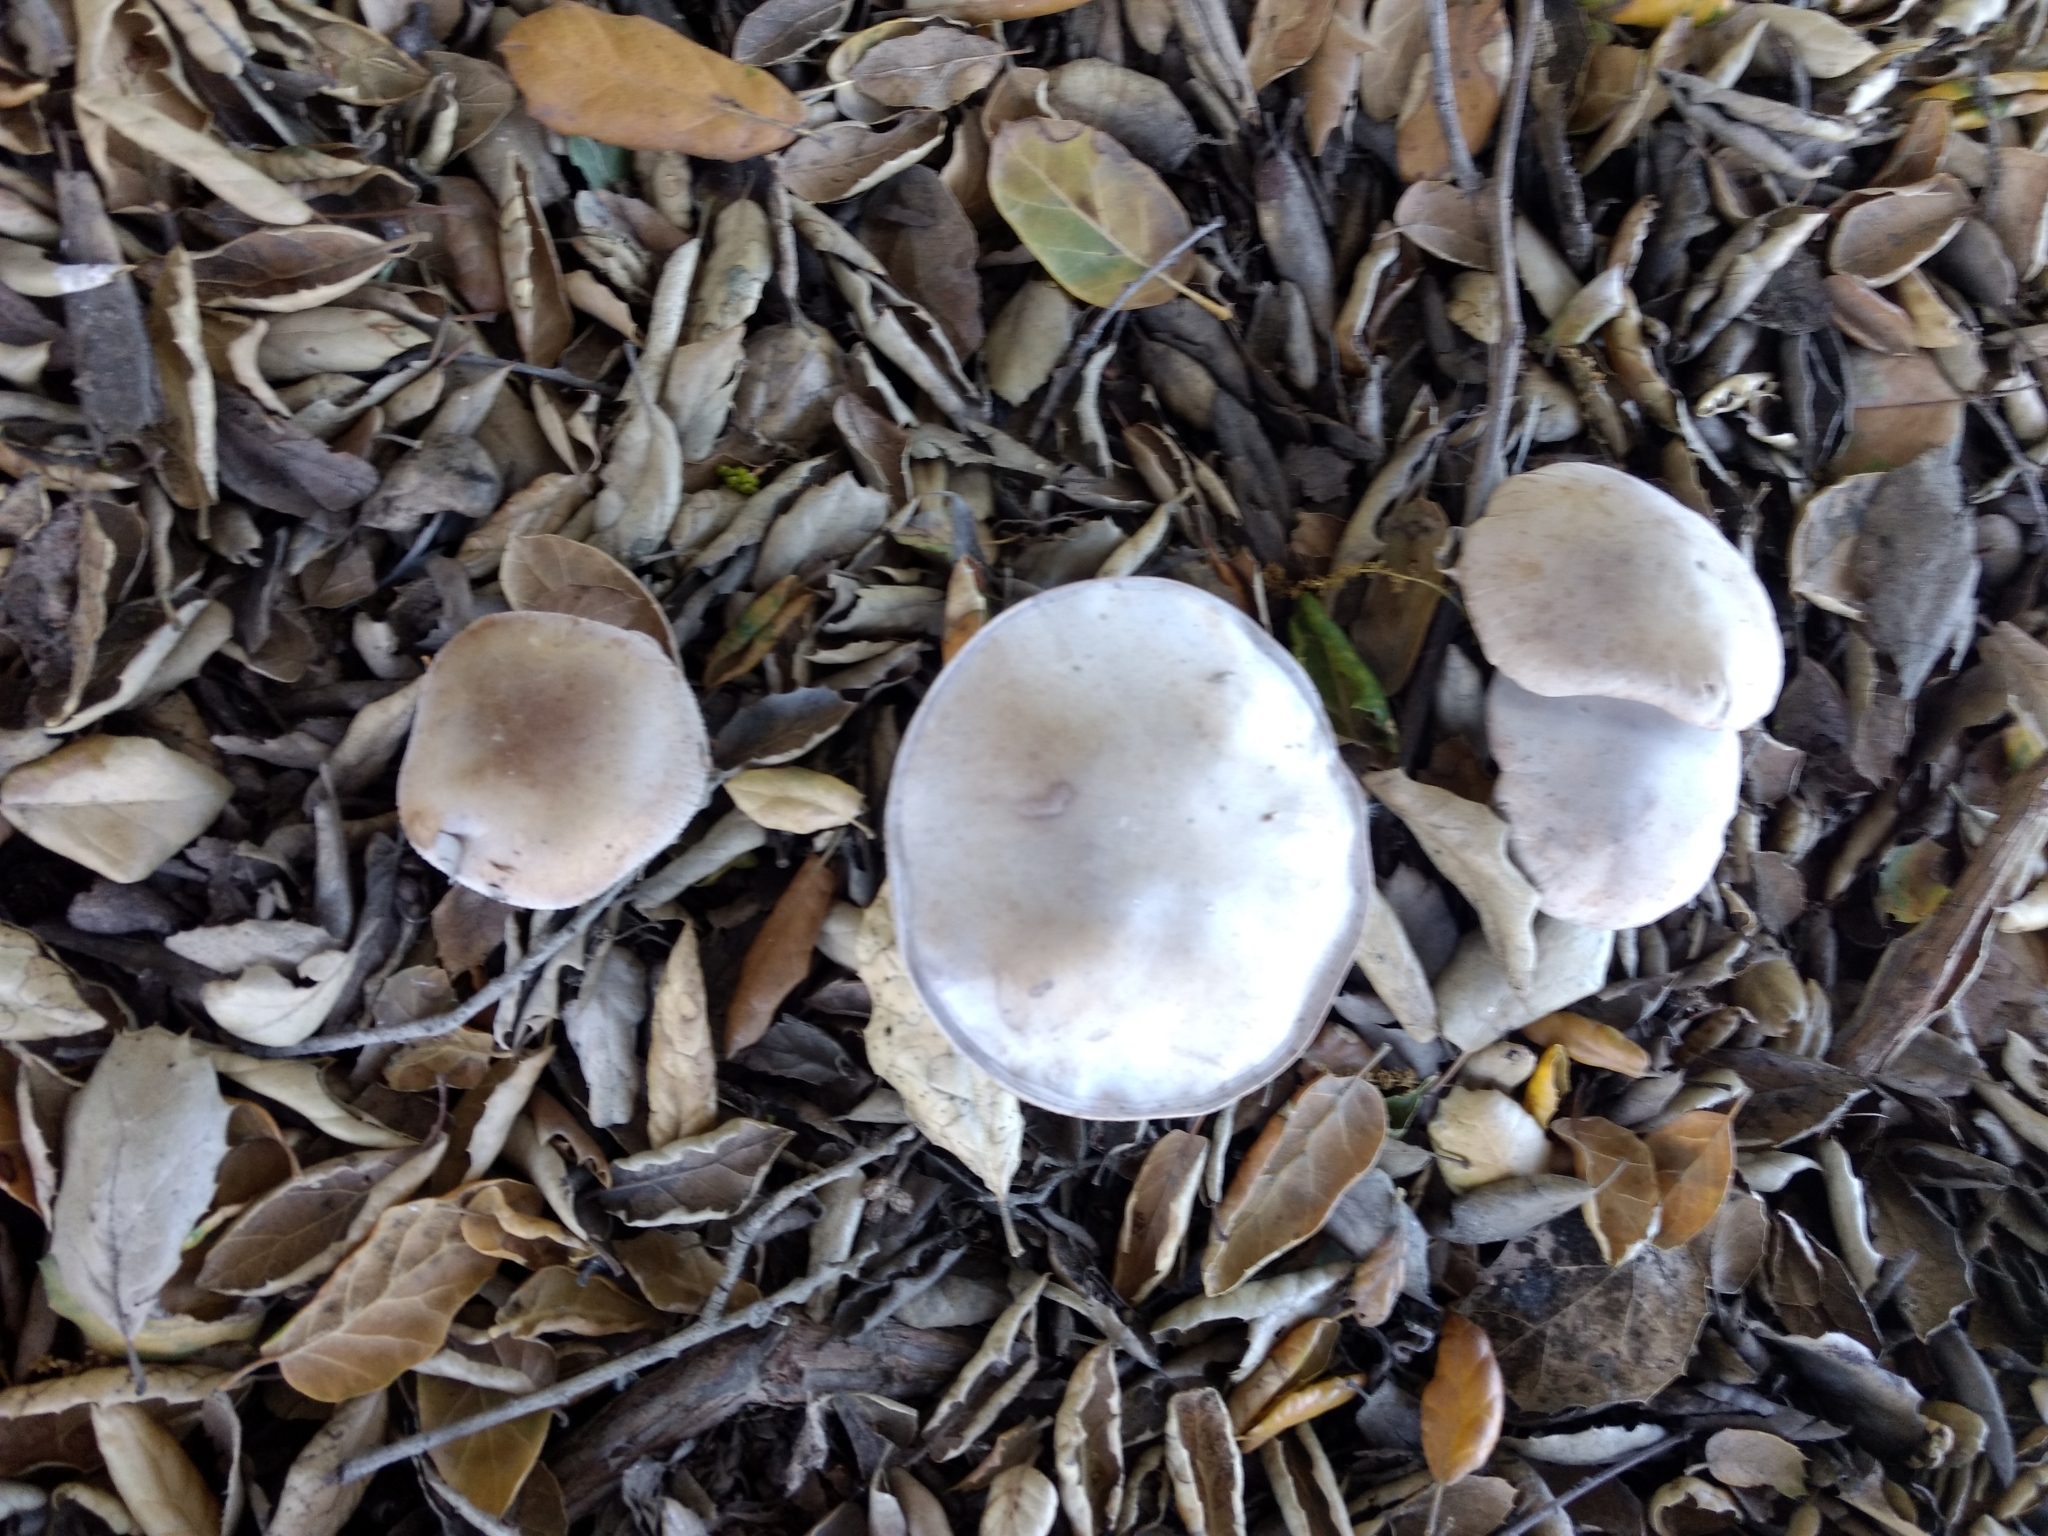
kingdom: Fungi
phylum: Basidiomycota
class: Agaricomycetes
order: Agaricales
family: Tricholomataceae
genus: Collybia
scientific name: Collybia
